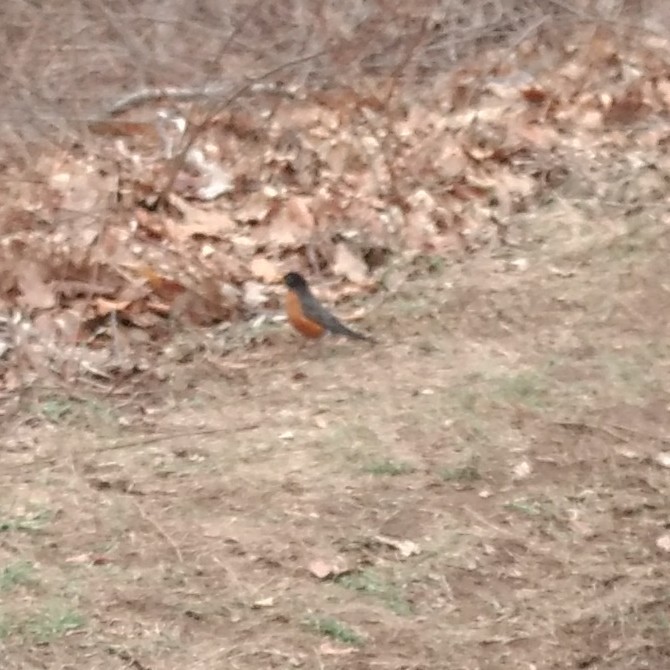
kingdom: Animalia
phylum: Chordata
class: Aves
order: Passeriformes
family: Turdidae
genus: Turdus
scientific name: Turdus migratorius
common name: American robin
